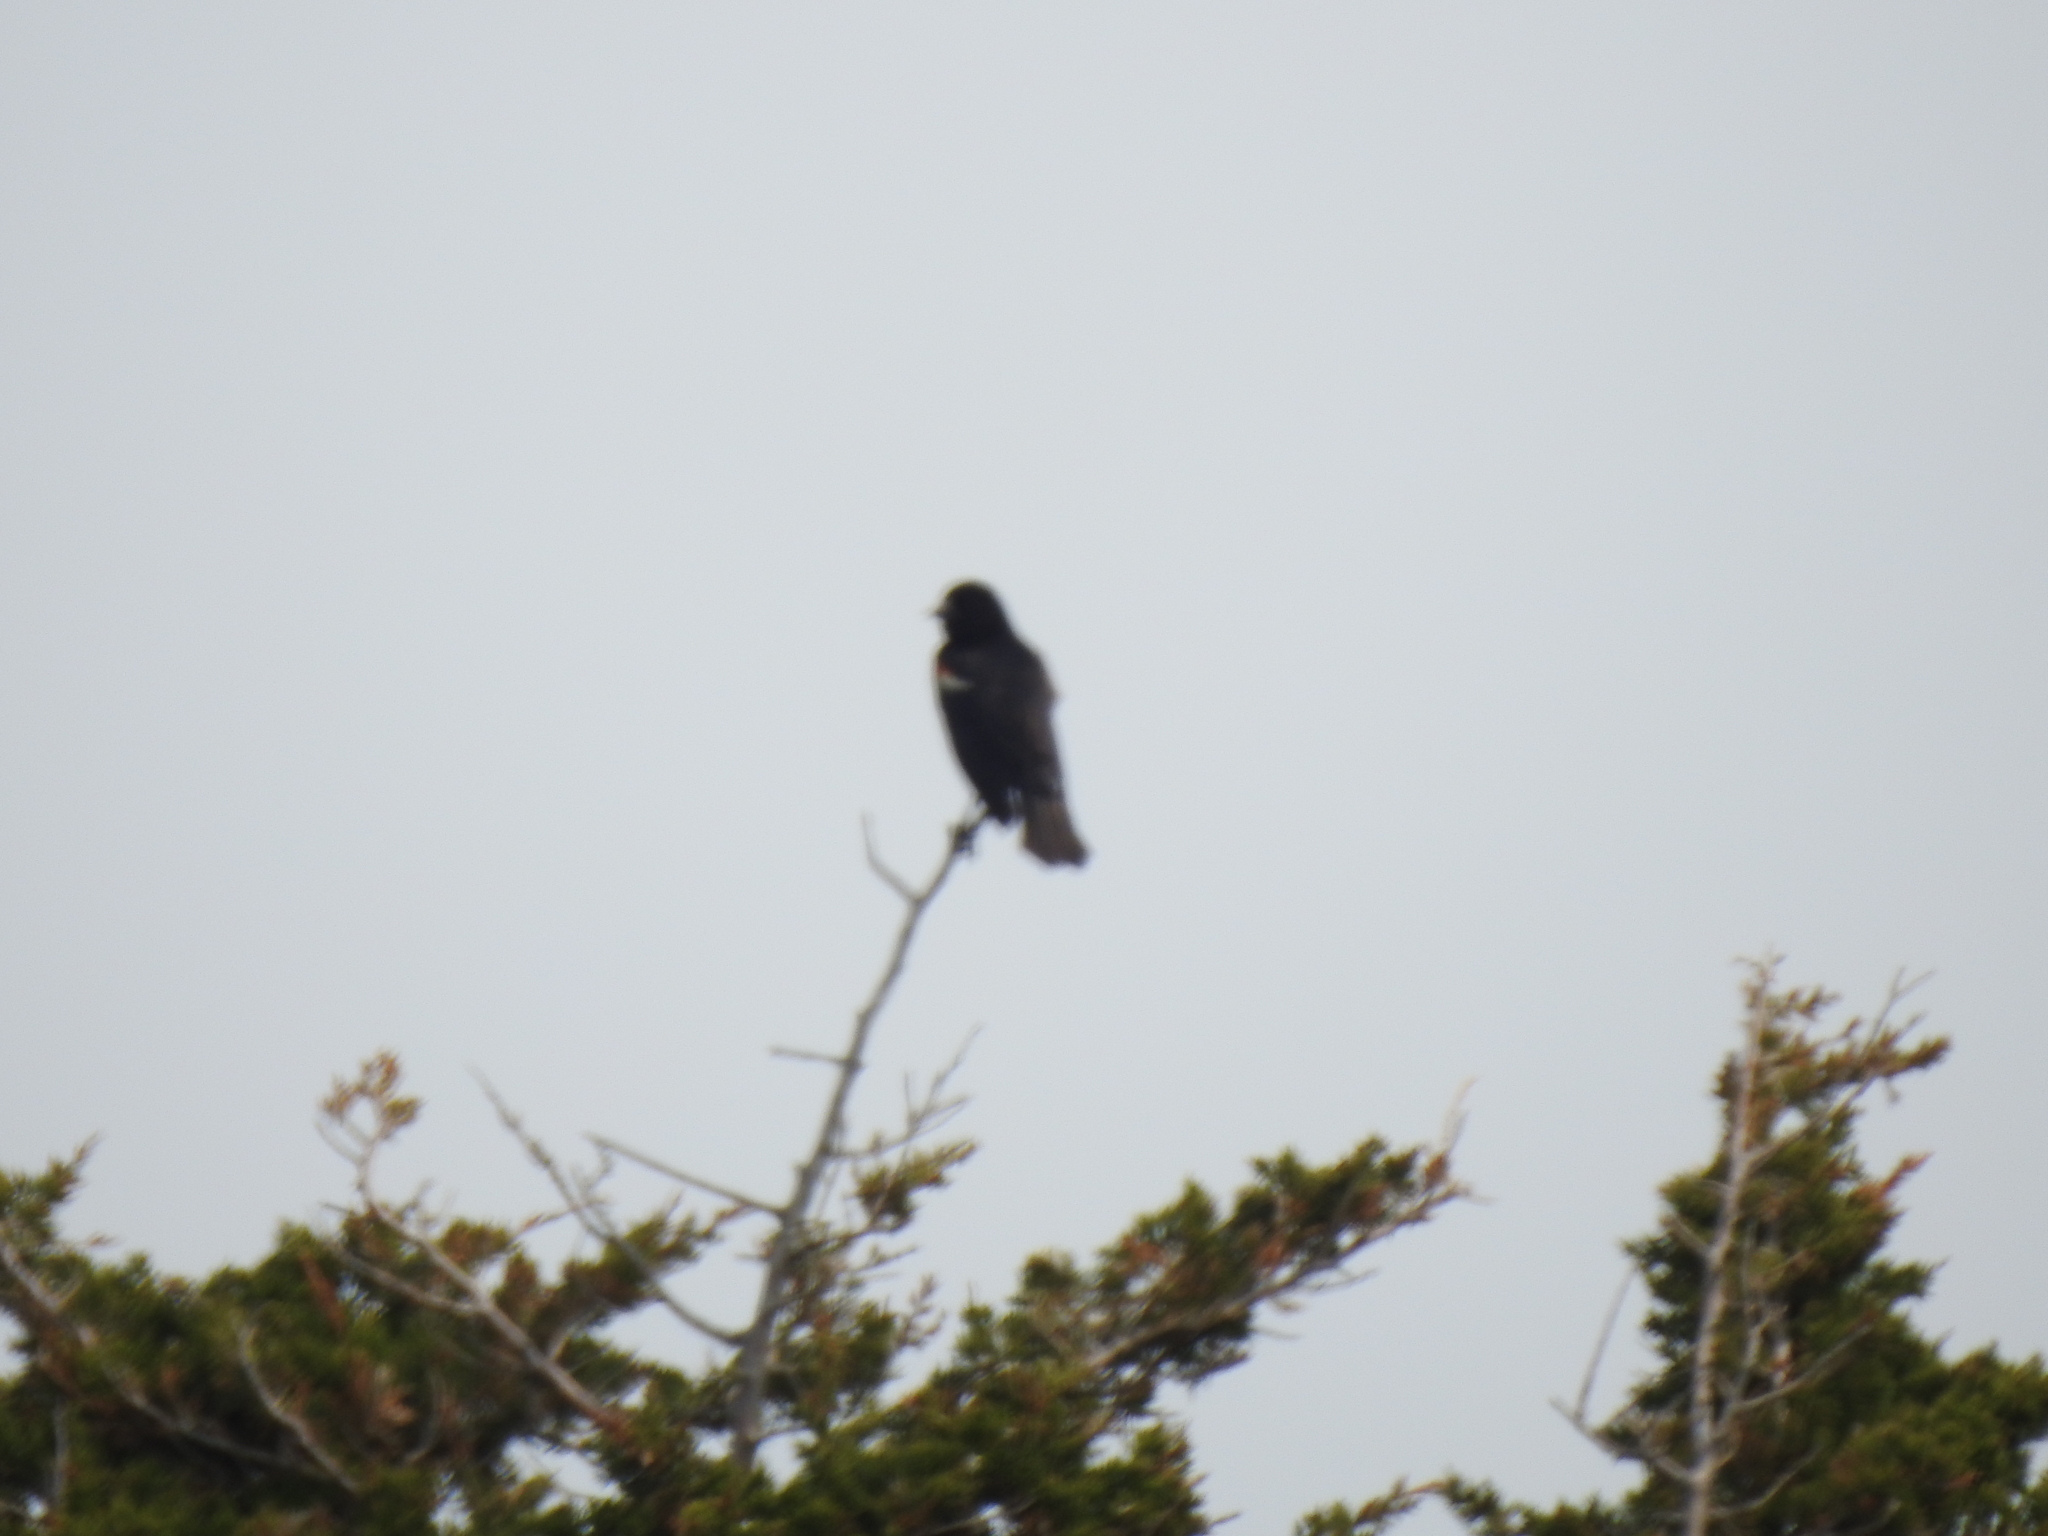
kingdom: Animalia
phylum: Chordata
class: Aves
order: Passeriformes
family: Icteridae
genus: Agelaius
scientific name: Agelaius phoeniceus
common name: Red-winged blackbird
